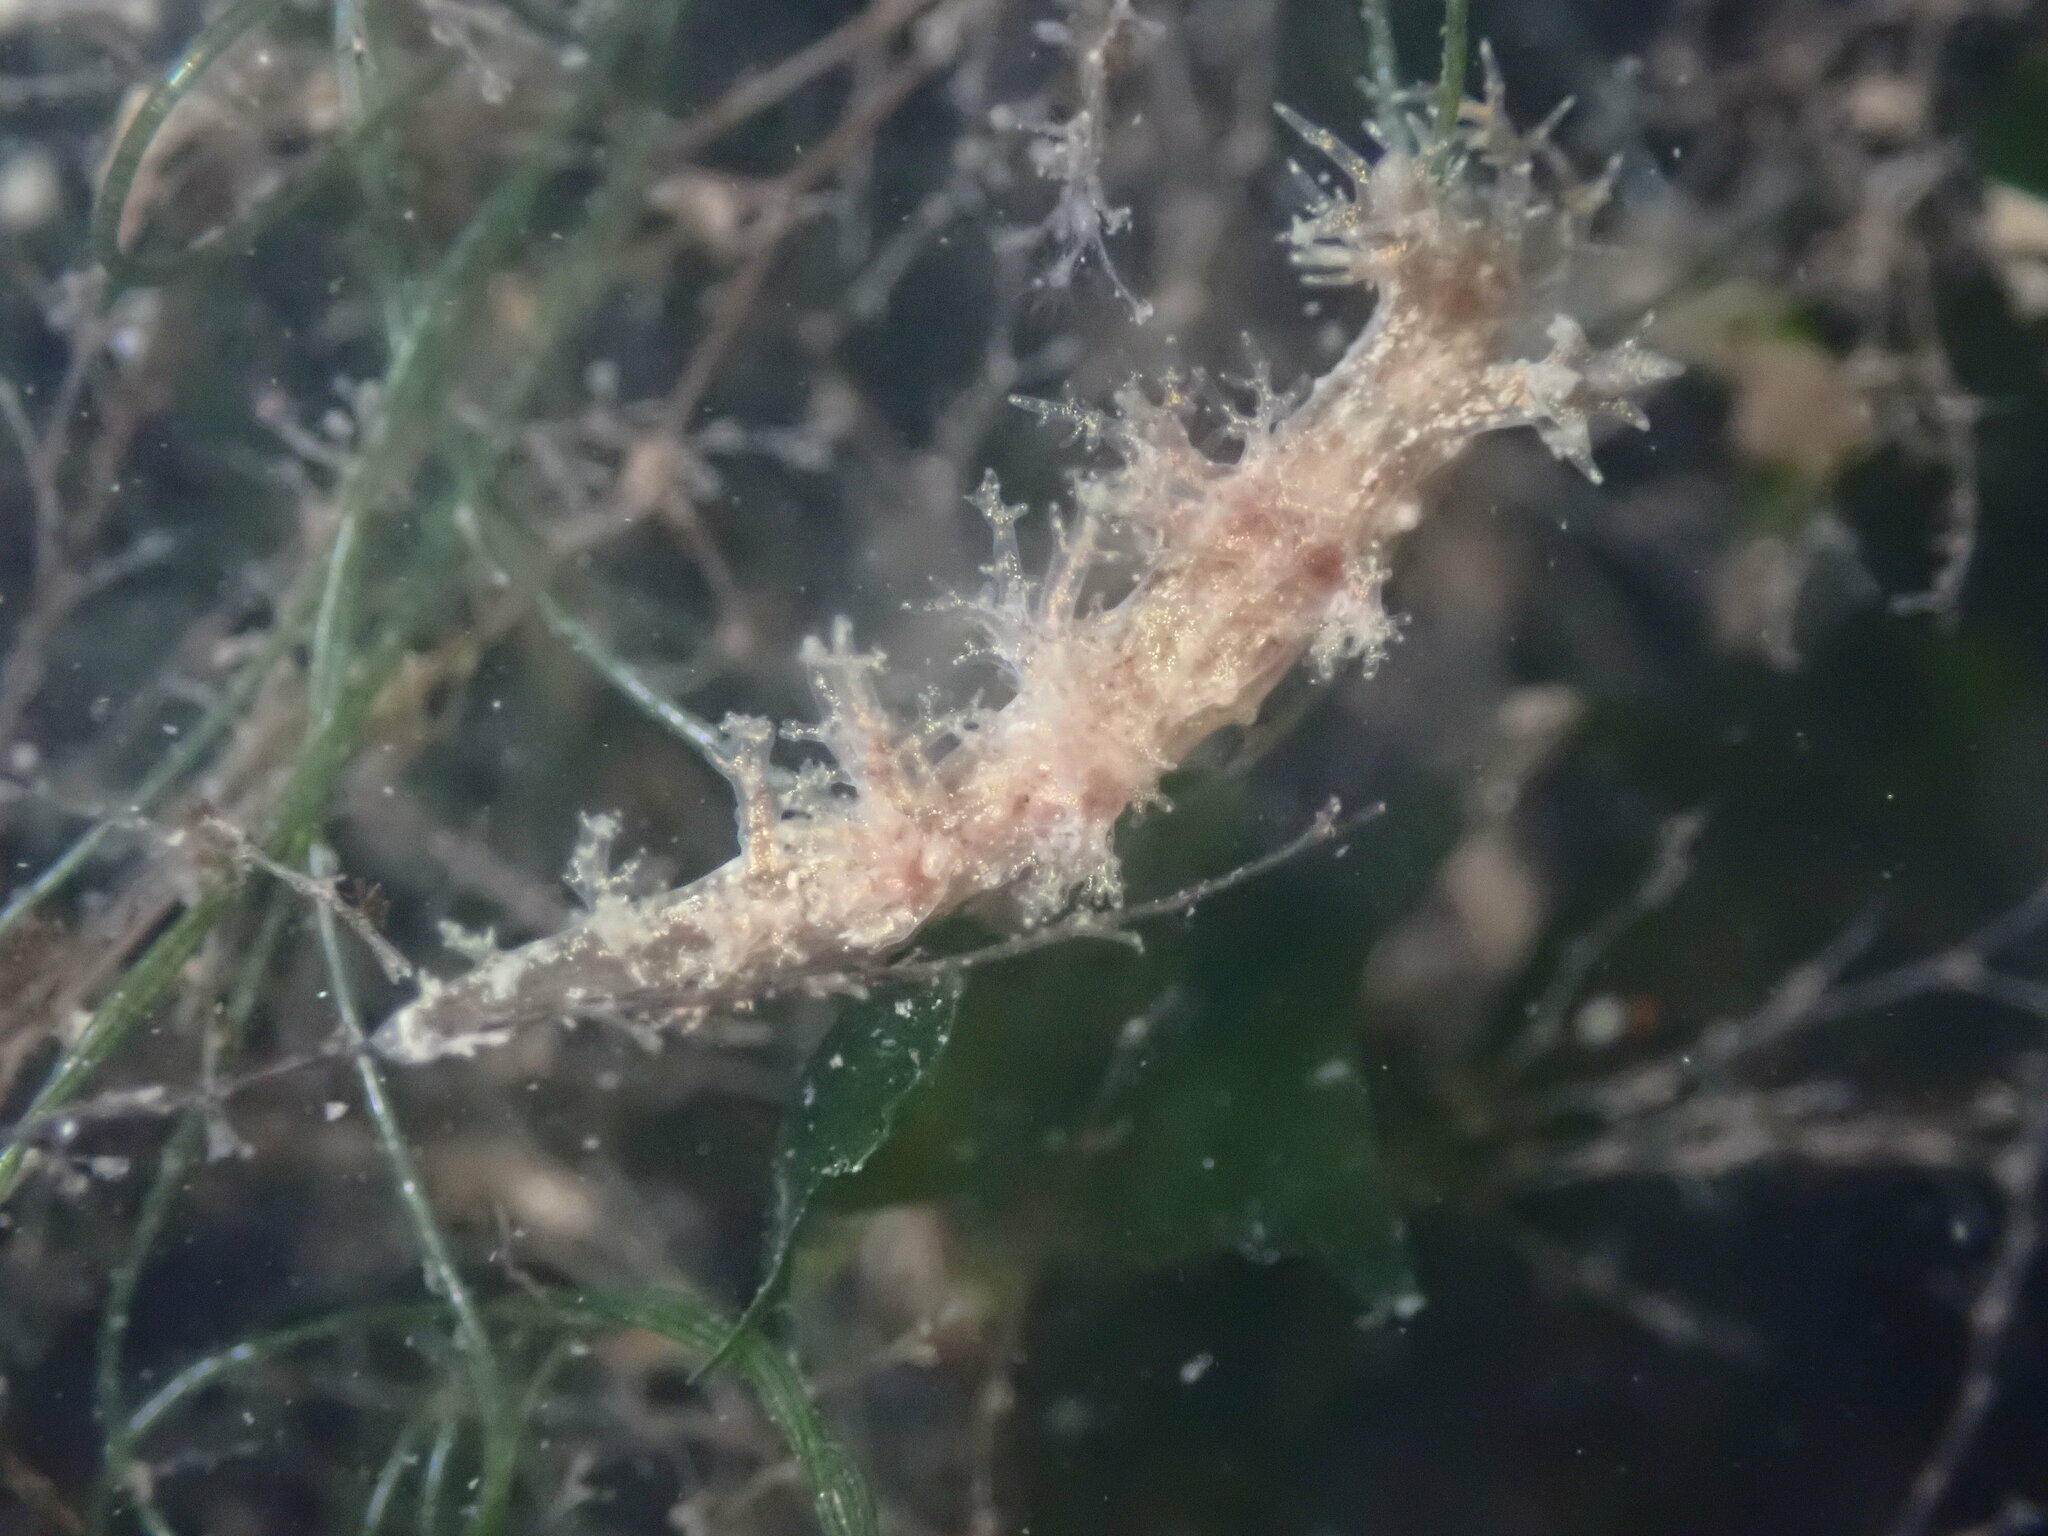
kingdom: Animalia
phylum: Mollusca
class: Gastropoda
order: Nudibranchia
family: Dendronotidae
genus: Dendronotus
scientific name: Dendronotus venustus
